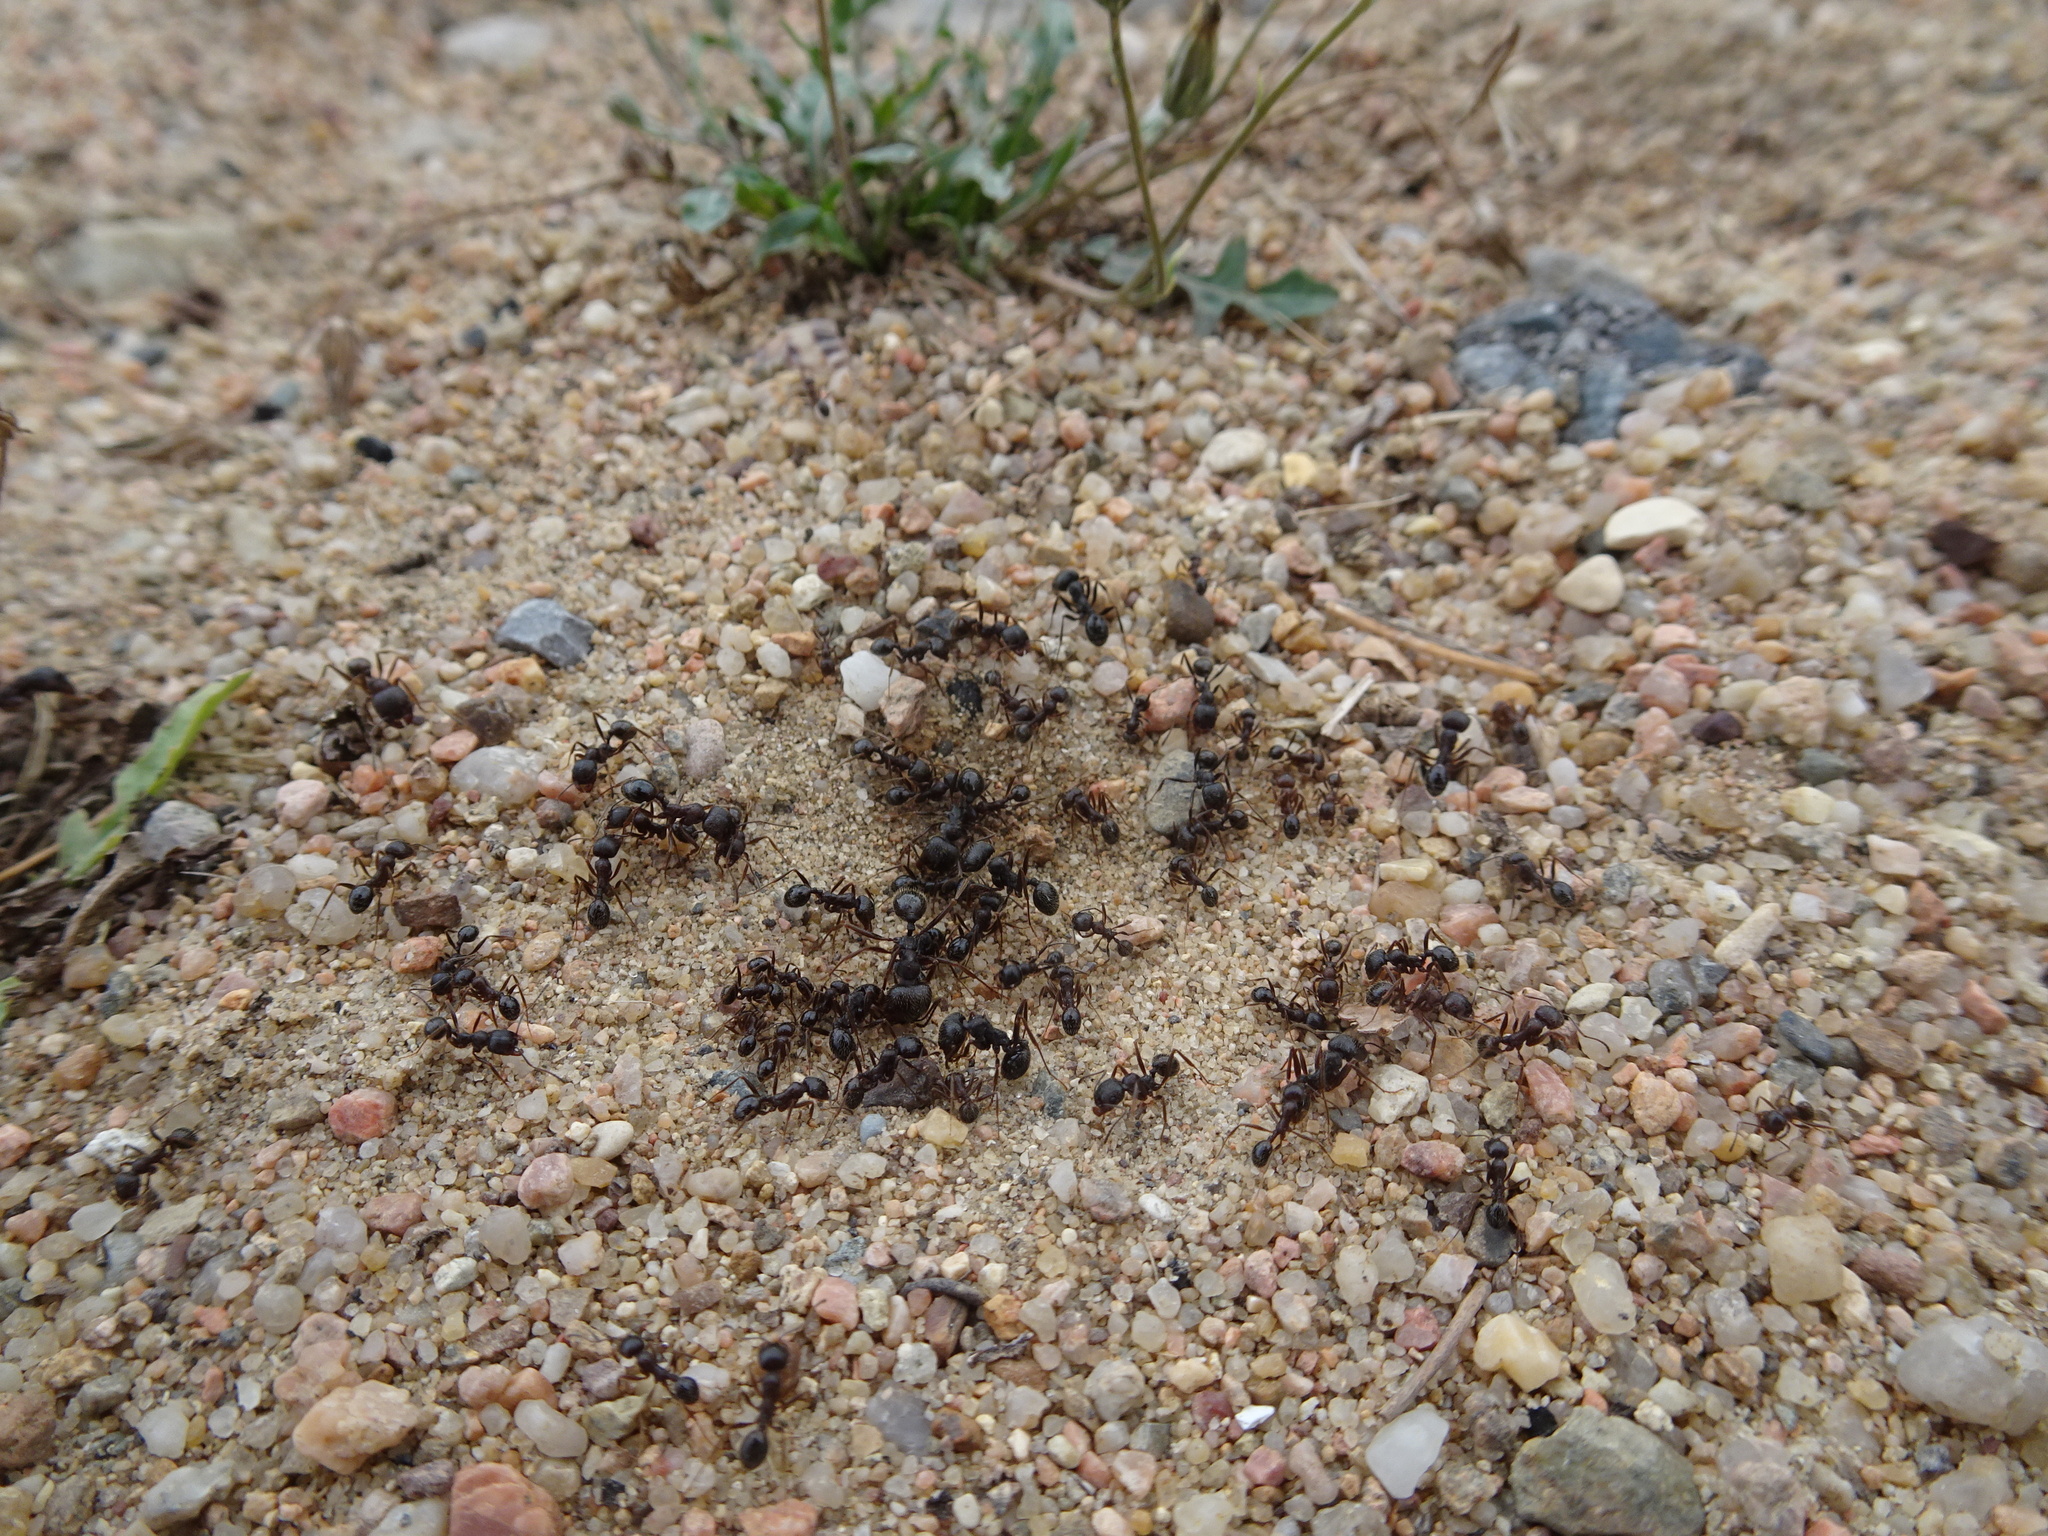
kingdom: Animalia
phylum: Arthropoda
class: Insecta
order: Hymenoptera
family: Formicidae
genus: Messor
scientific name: Messor structor
